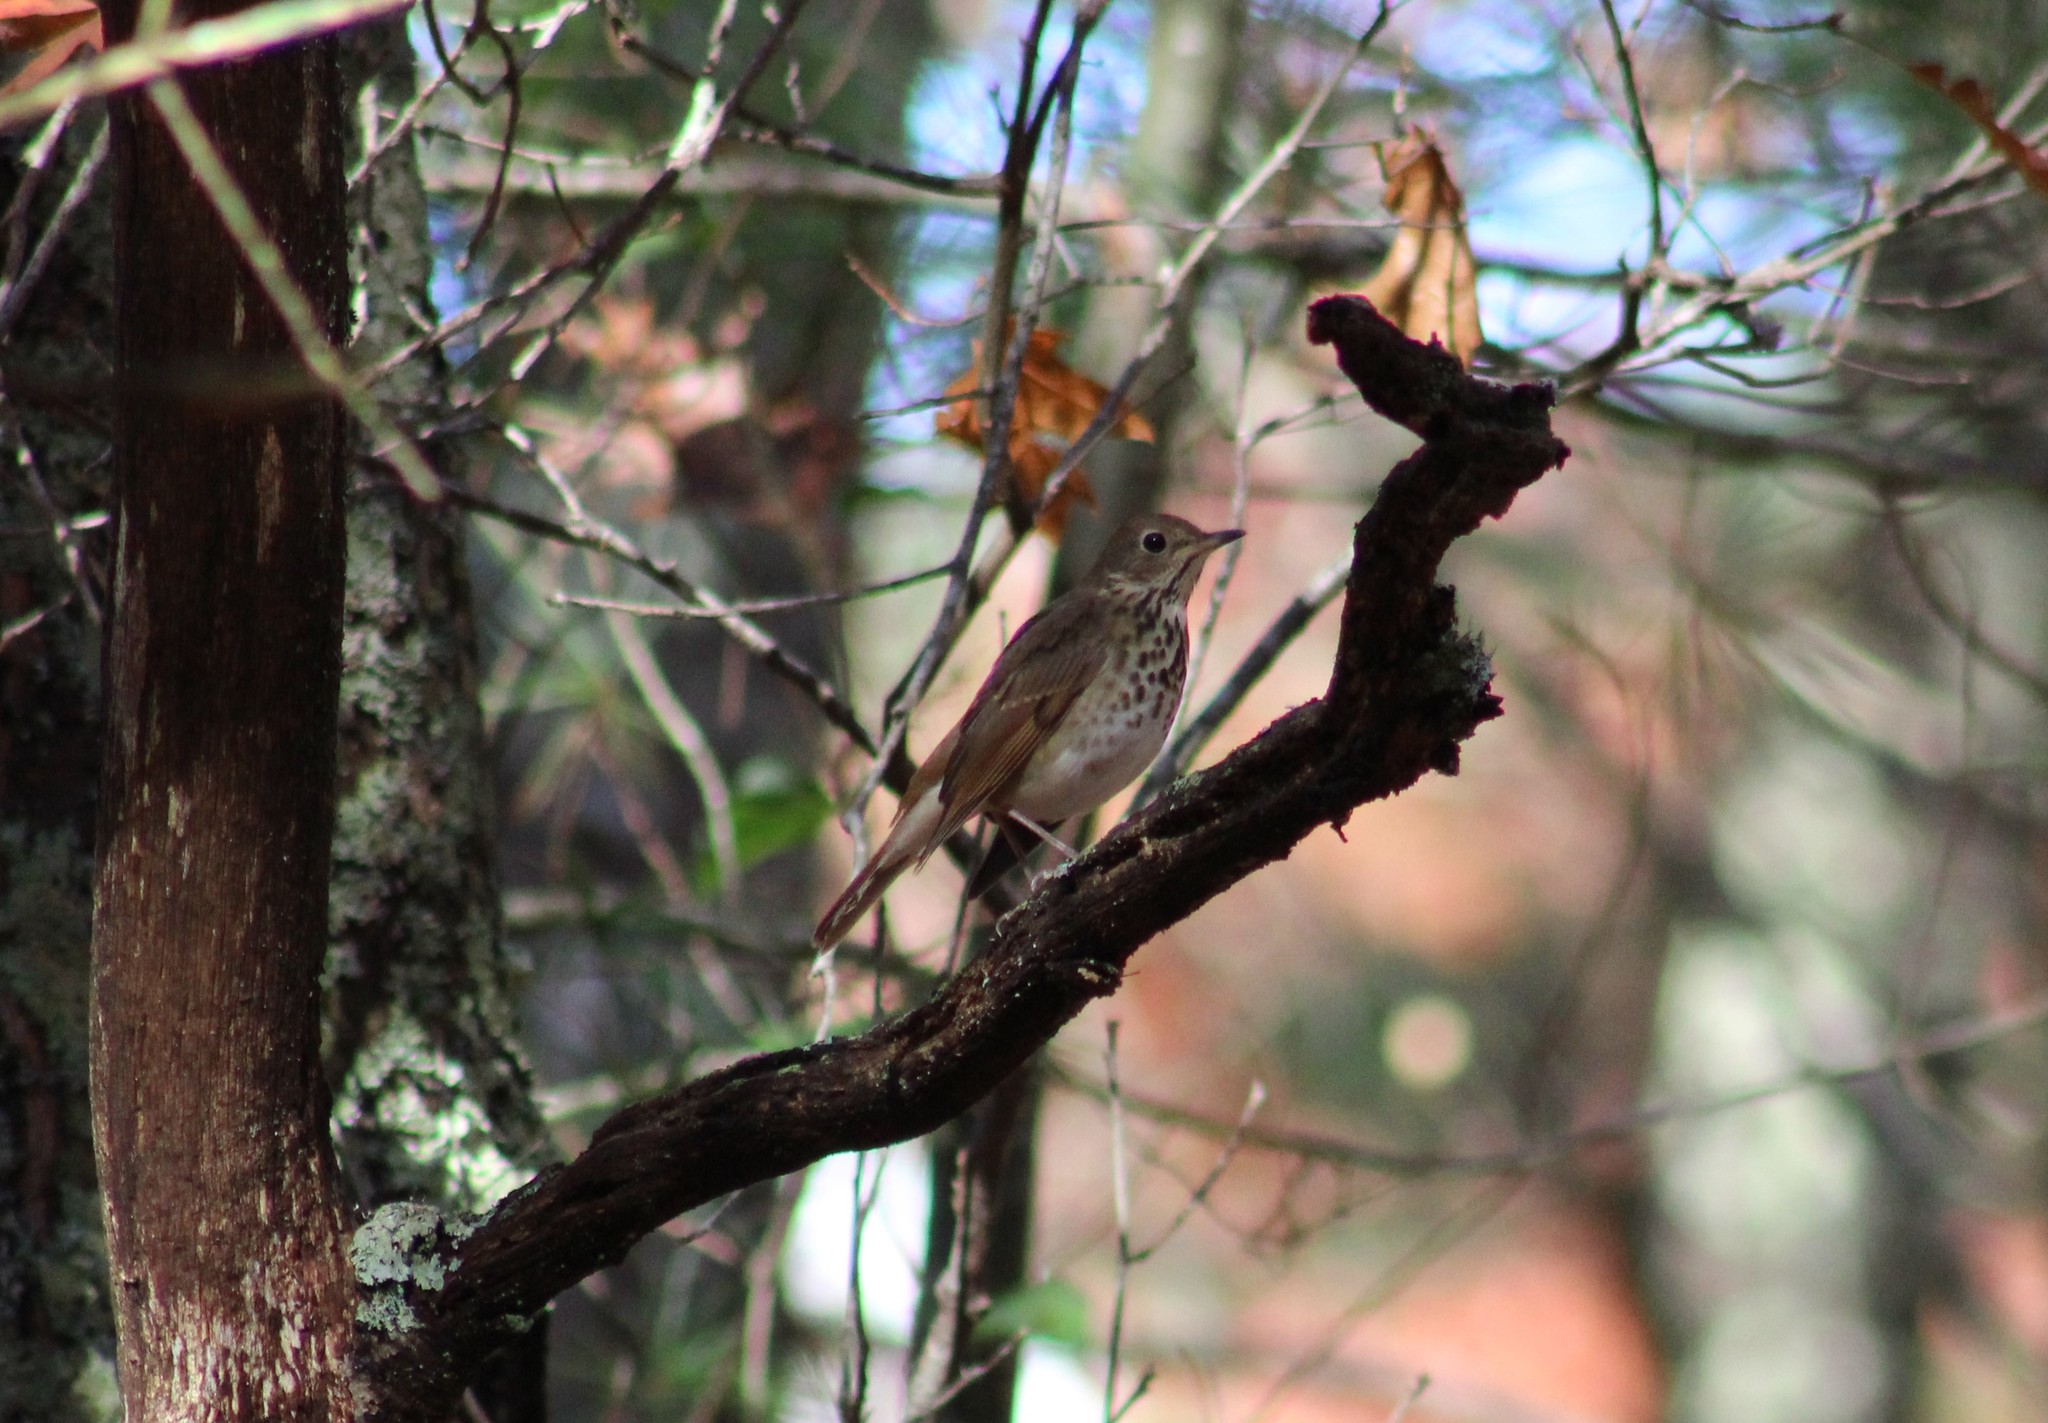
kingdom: Animalia
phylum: Chordata
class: Aves
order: Passeriformes
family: Turdidae
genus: Catharus
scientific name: Catharus guttatus
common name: Hermit thrush
